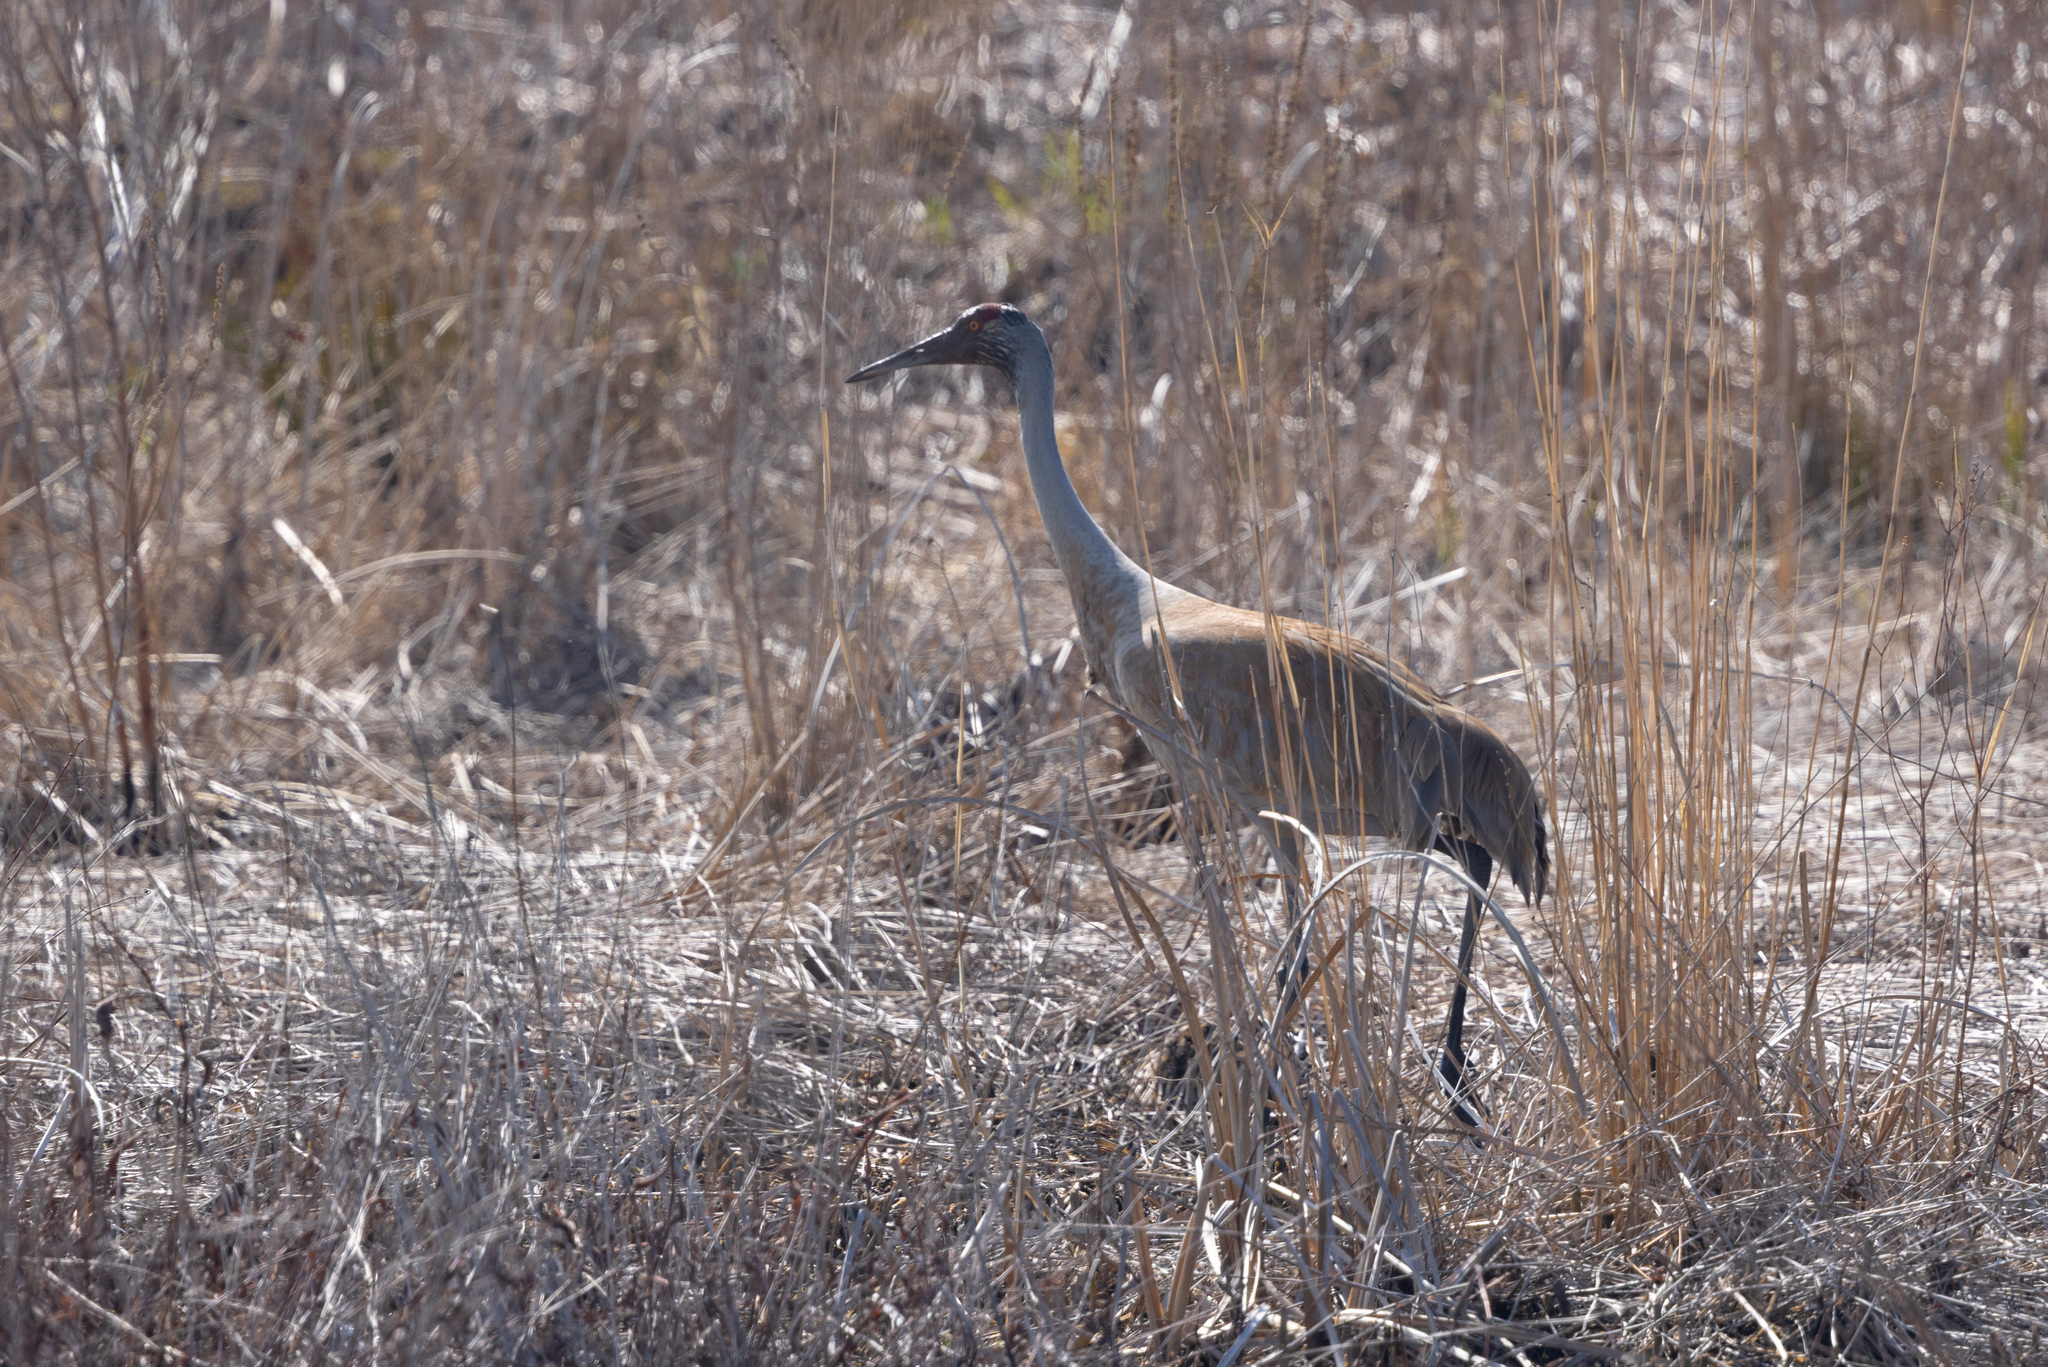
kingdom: Animalia
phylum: Chordata
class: Aves
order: Gruiformes
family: Gruidae
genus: Grus
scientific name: Grus canadensis
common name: Sandhill crane
